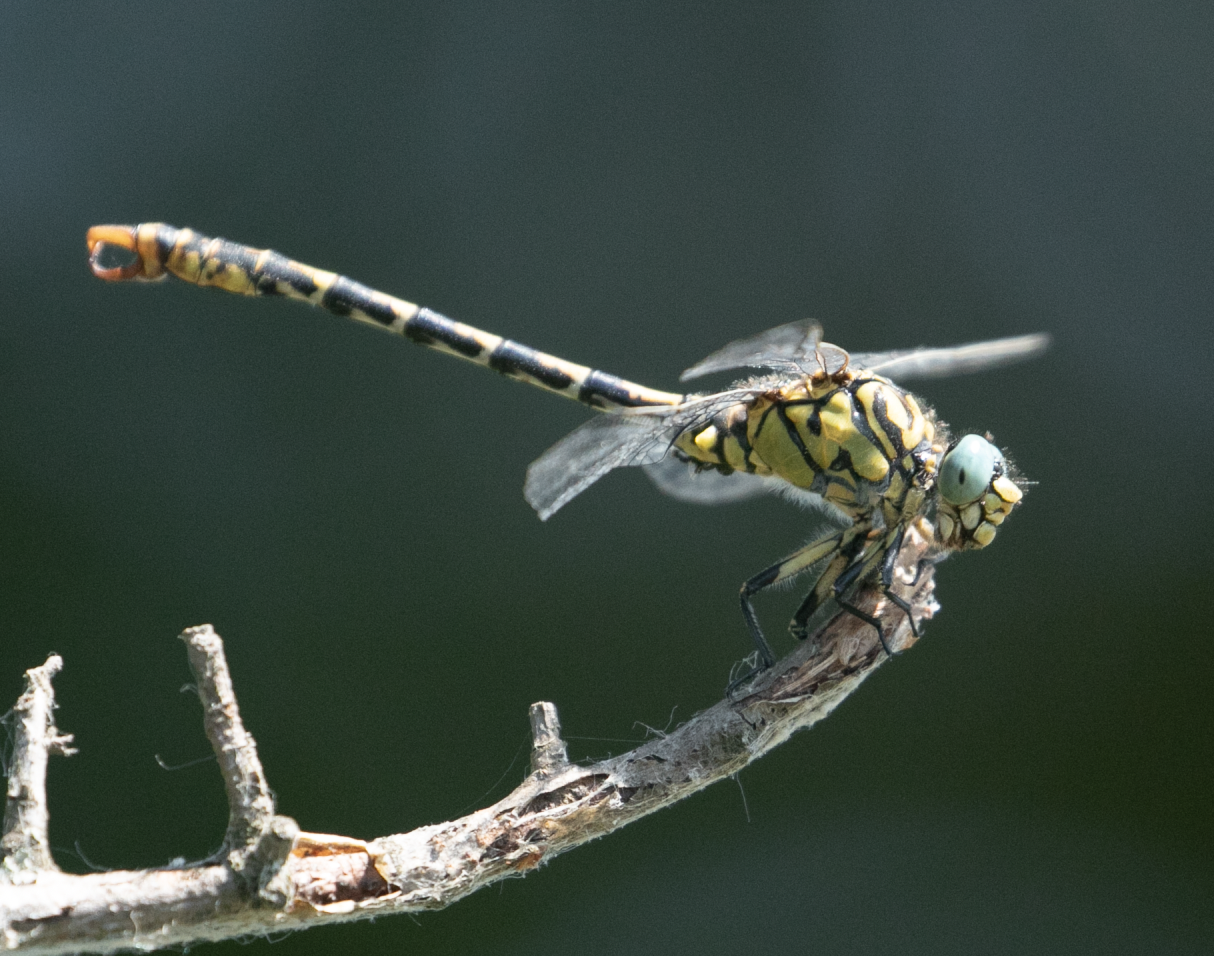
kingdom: Animalia
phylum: Arthropoda
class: Insecta
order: Odonata
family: Gomphidae
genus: Onychogomphus
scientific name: Onychogomphus forcipatus
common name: Small pincertail
